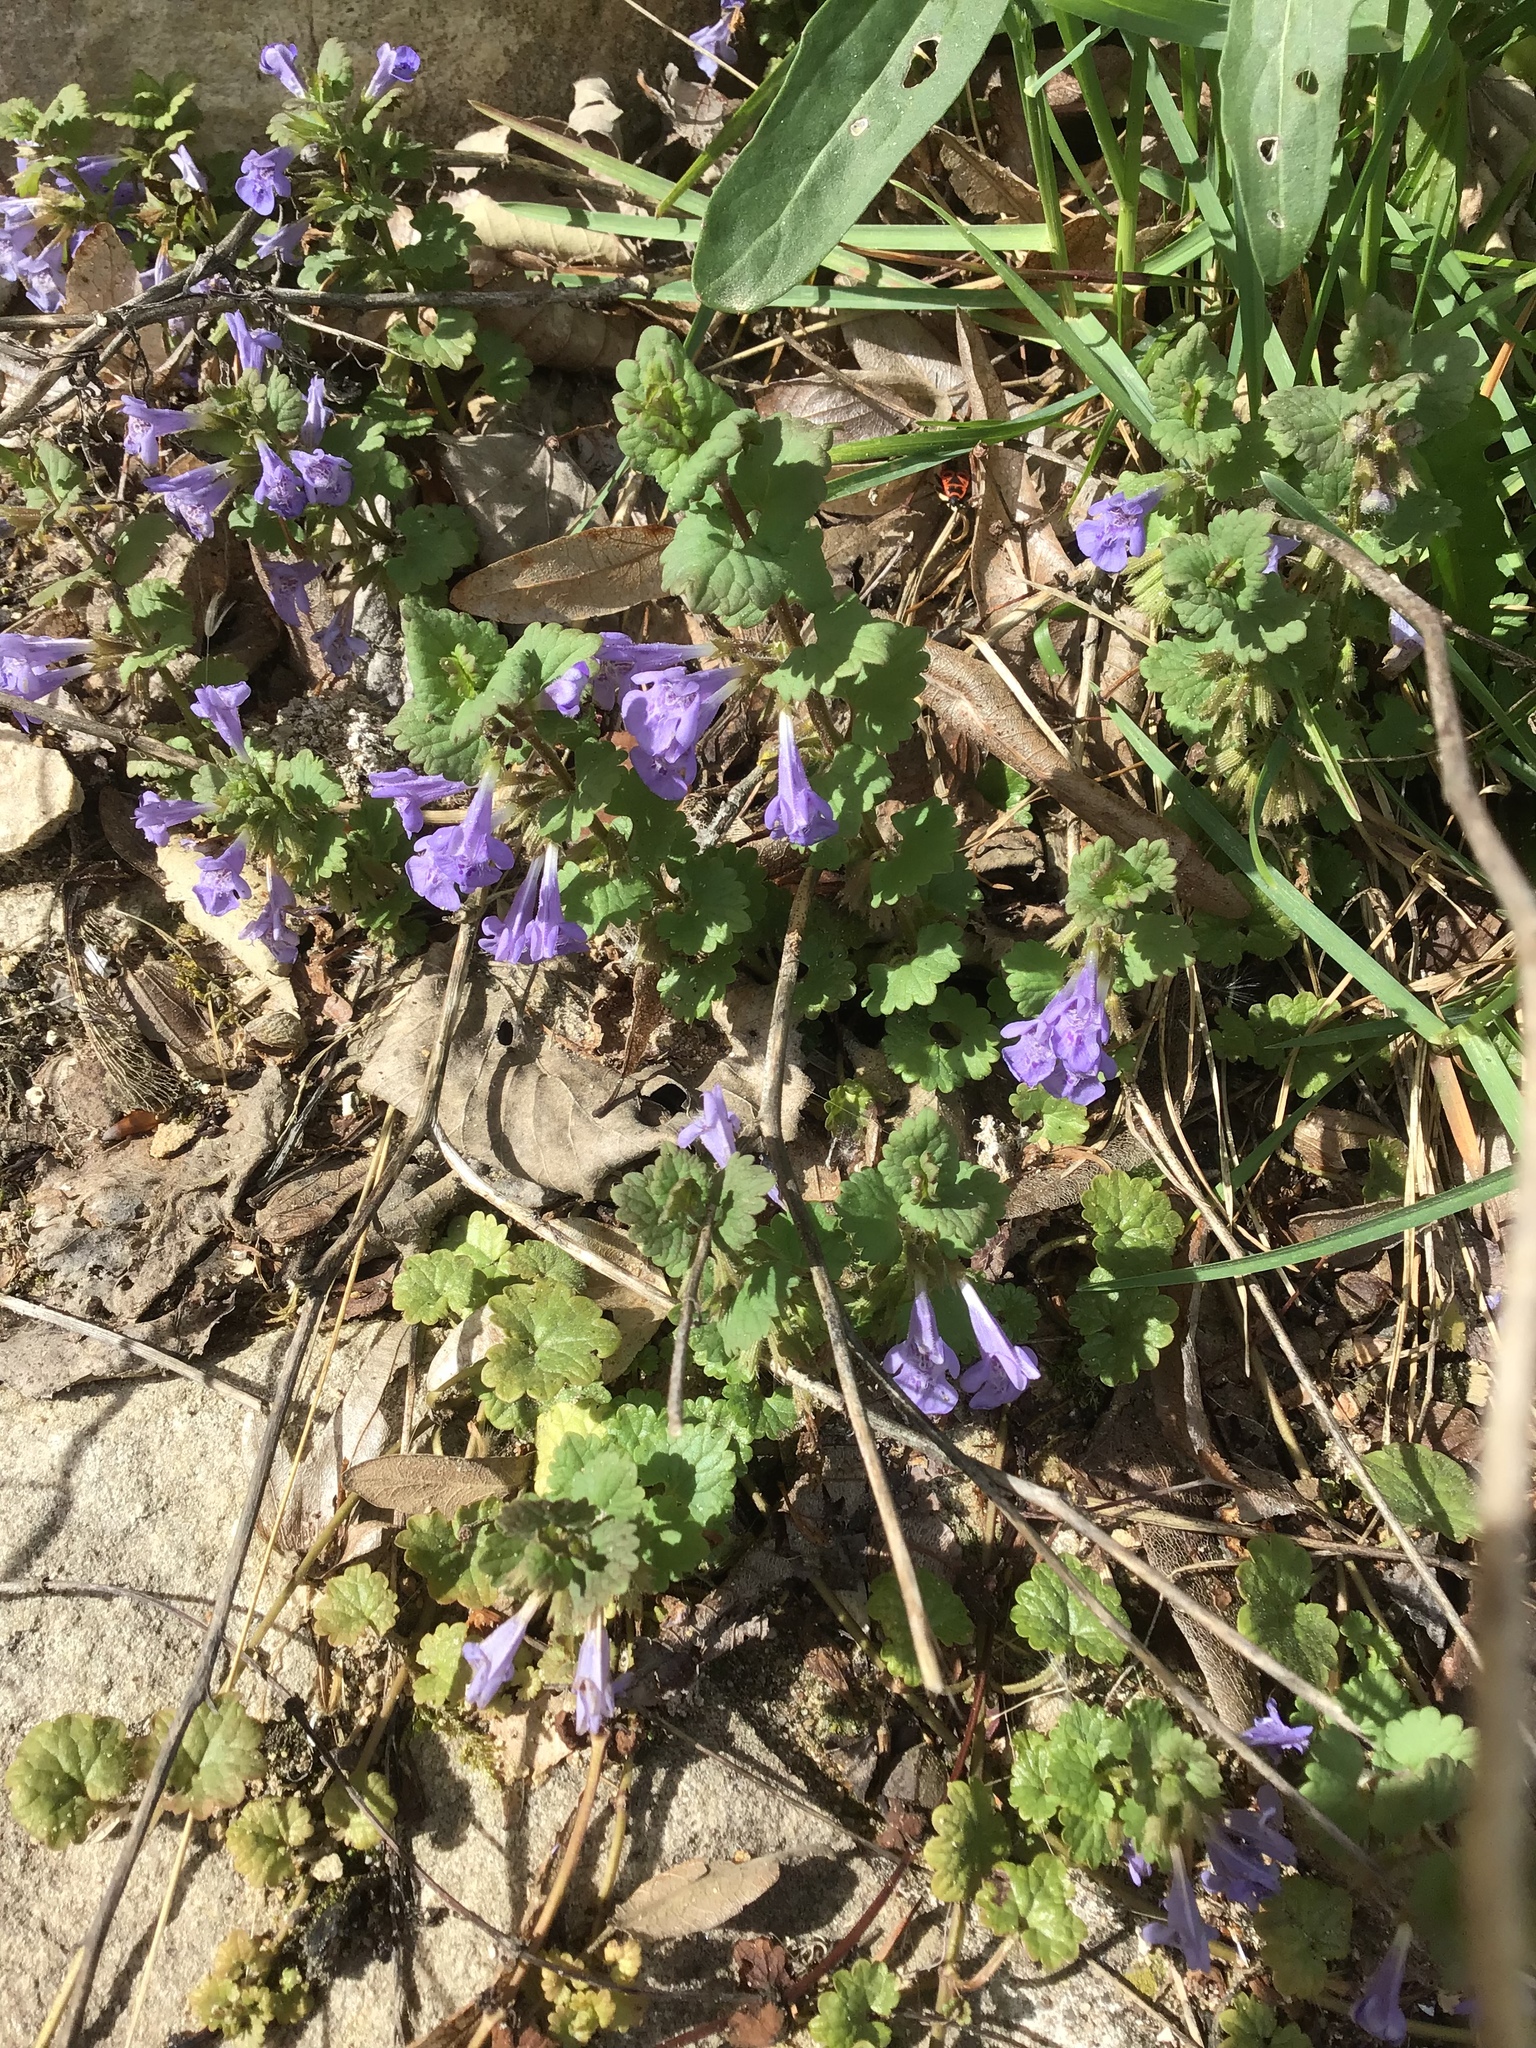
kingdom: Plantae
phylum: Tracheophyta
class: Magnoliopsida
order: Lamiales
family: Lamiaceae
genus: Glechoma
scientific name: Glechoma hederacea
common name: Ground ivy
